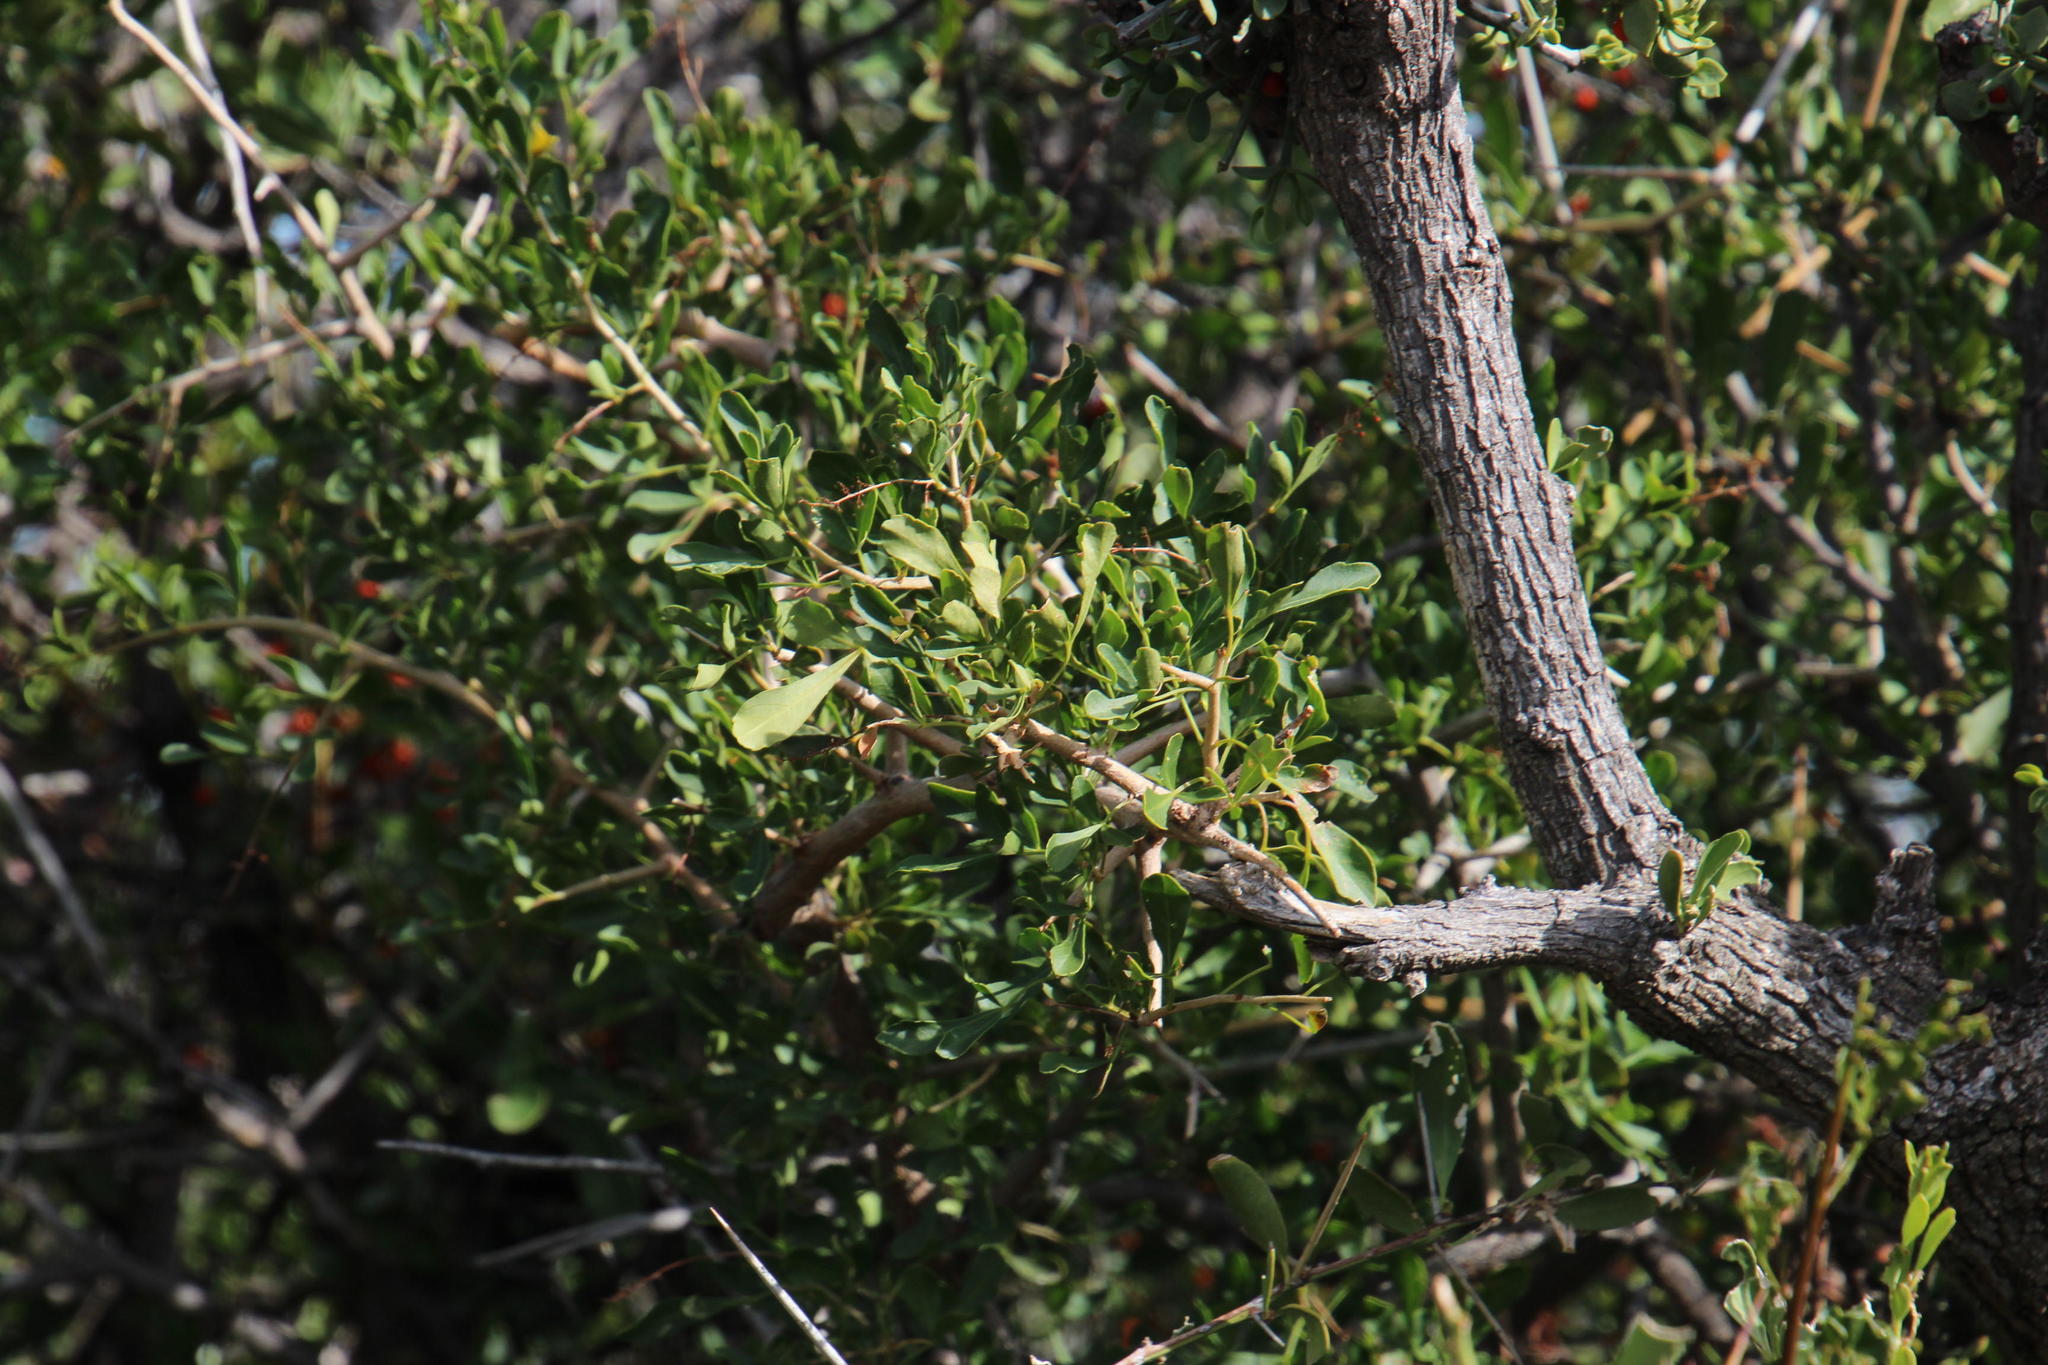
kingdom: Plantae
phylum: Tracheophyta
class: Magnoliopsida
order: Sapindales
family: Anacardiaceae
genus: Searsia
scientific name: Searsia refracta
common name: Thorny crow-berry
